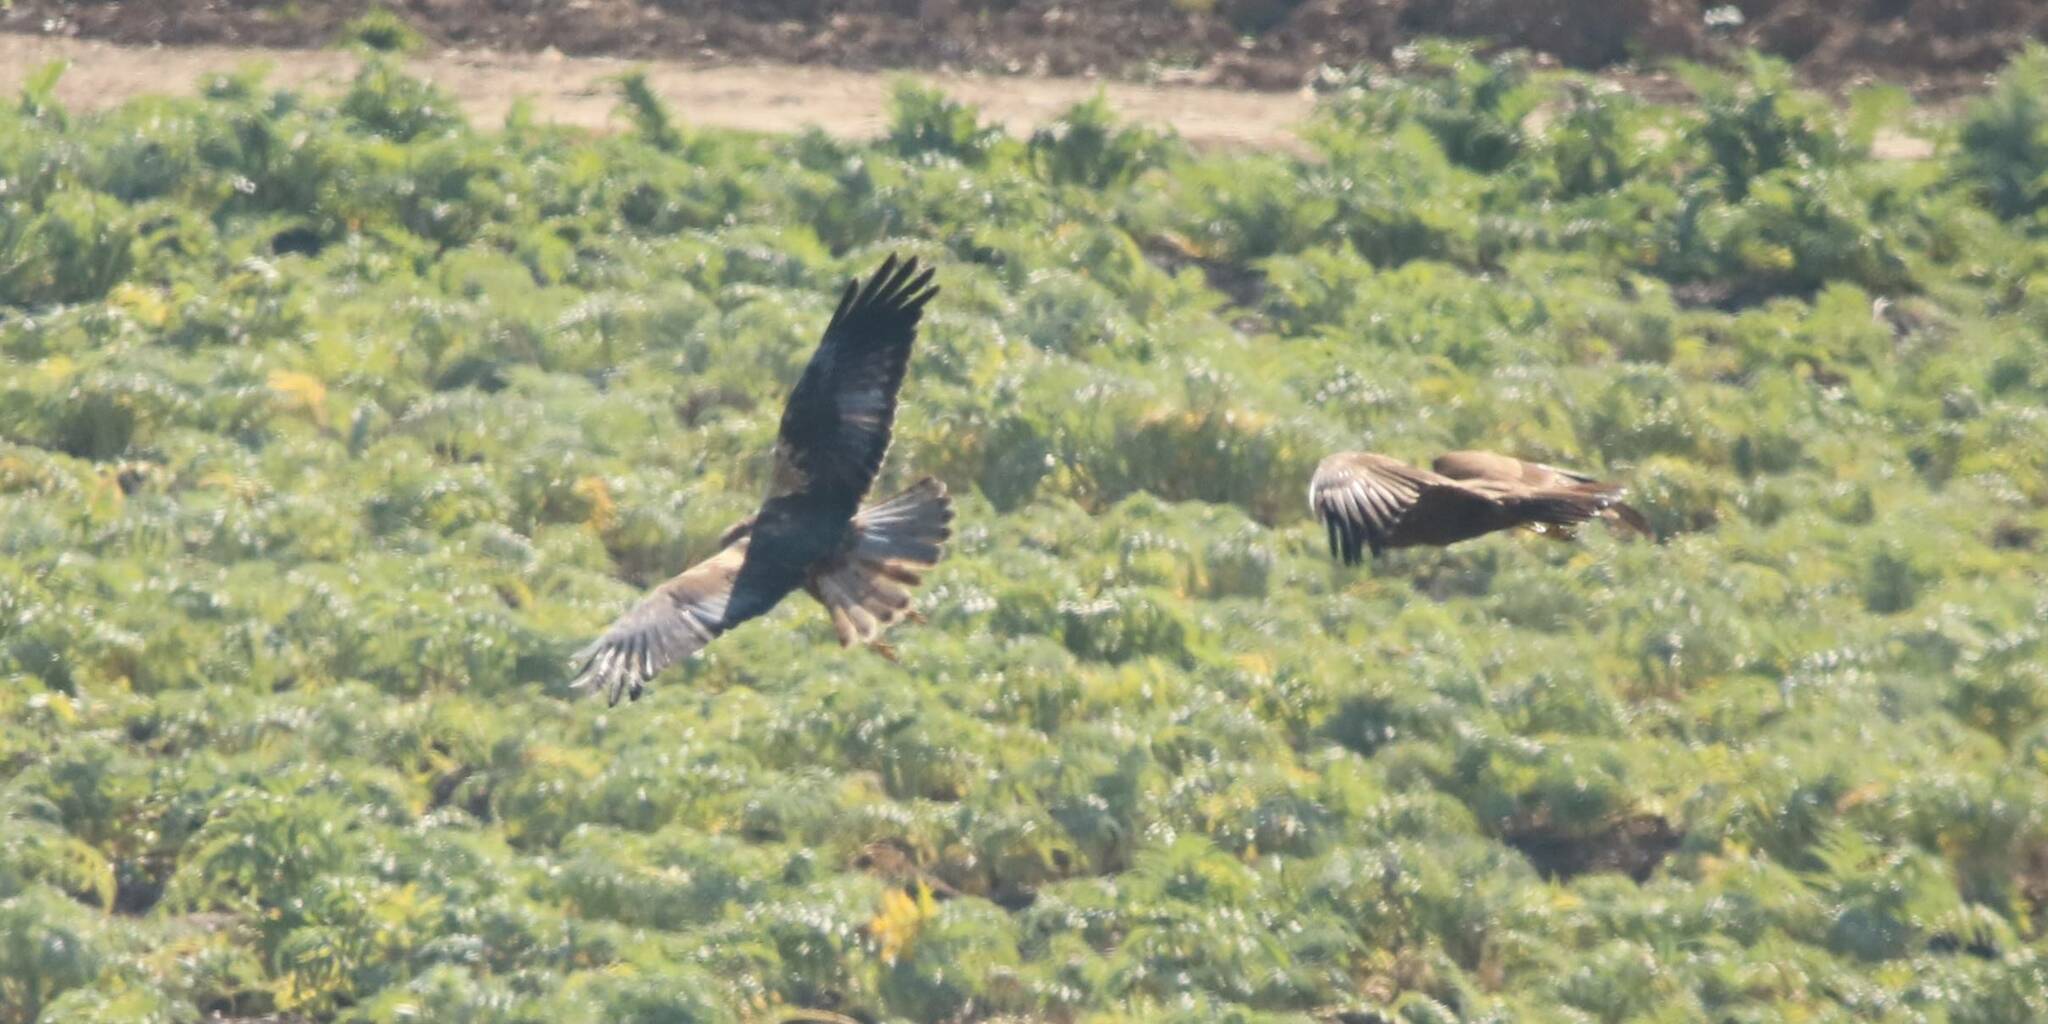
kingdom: Animalia
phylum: Chordata
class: Aves
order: Accipitriformes
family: Accipitridae
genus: Circus
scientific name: Circus aeruginosus
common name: Western marsh harrier
